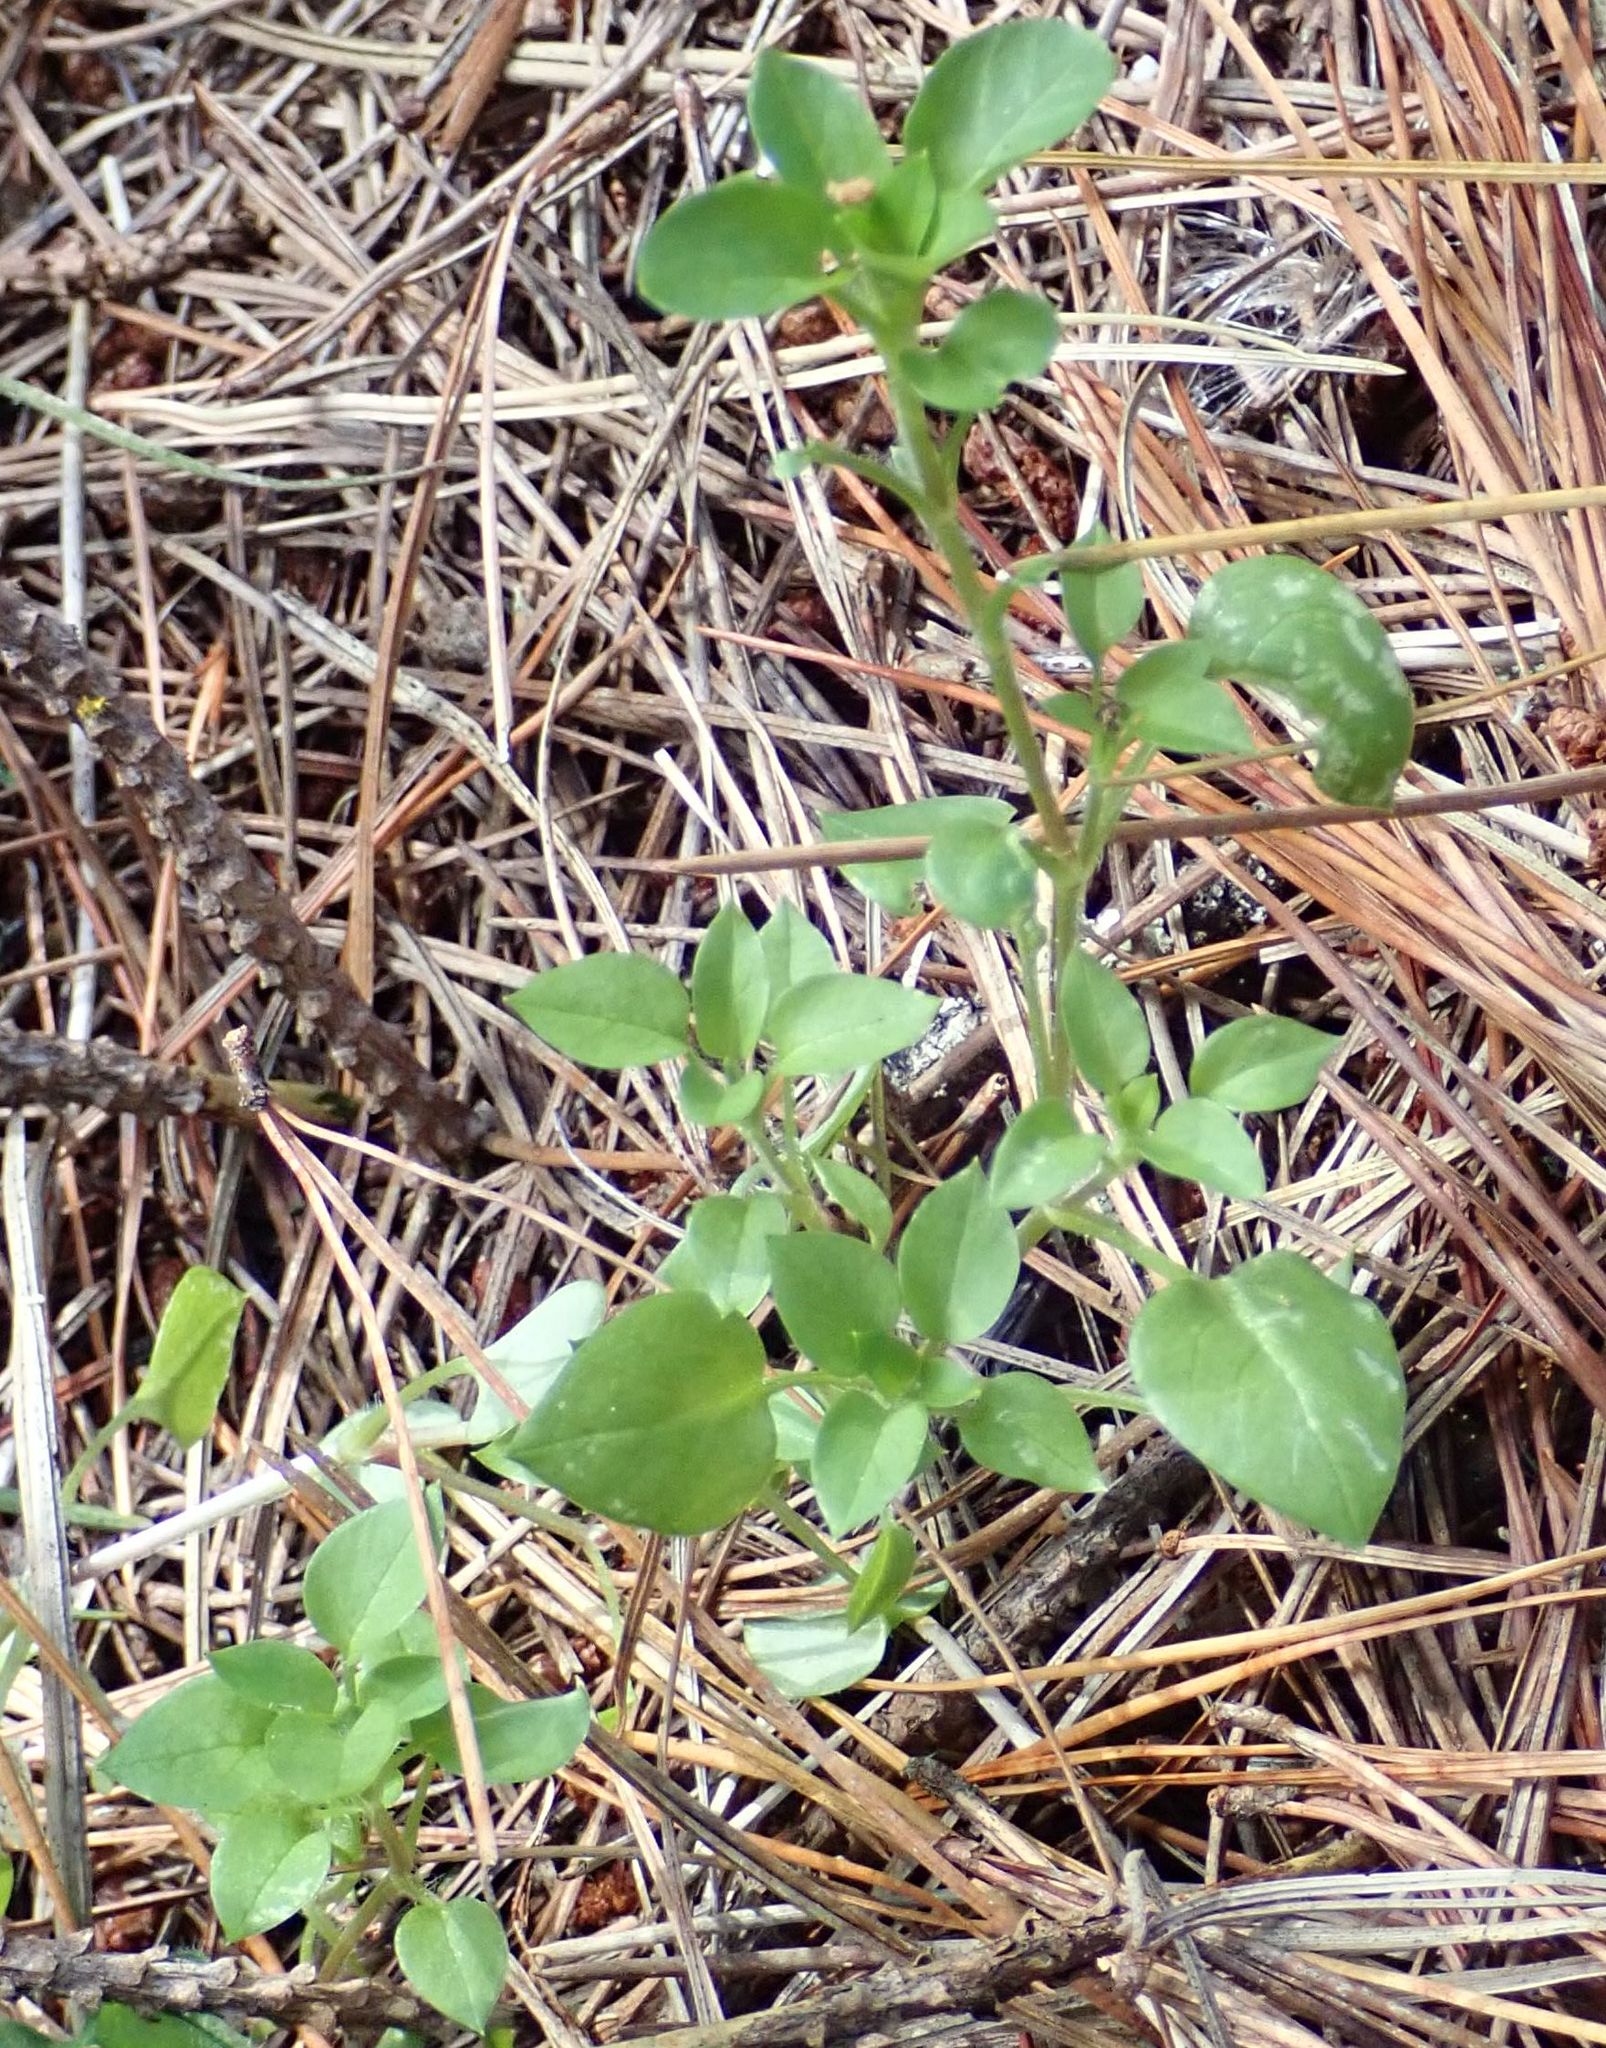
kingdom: Plantae
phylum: Tracheophyta
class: Magnoliopsida
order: Caryophyllales
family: Caryophyllaceae
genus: Stellaria
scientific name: Stellaria media
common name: Common chickweed
